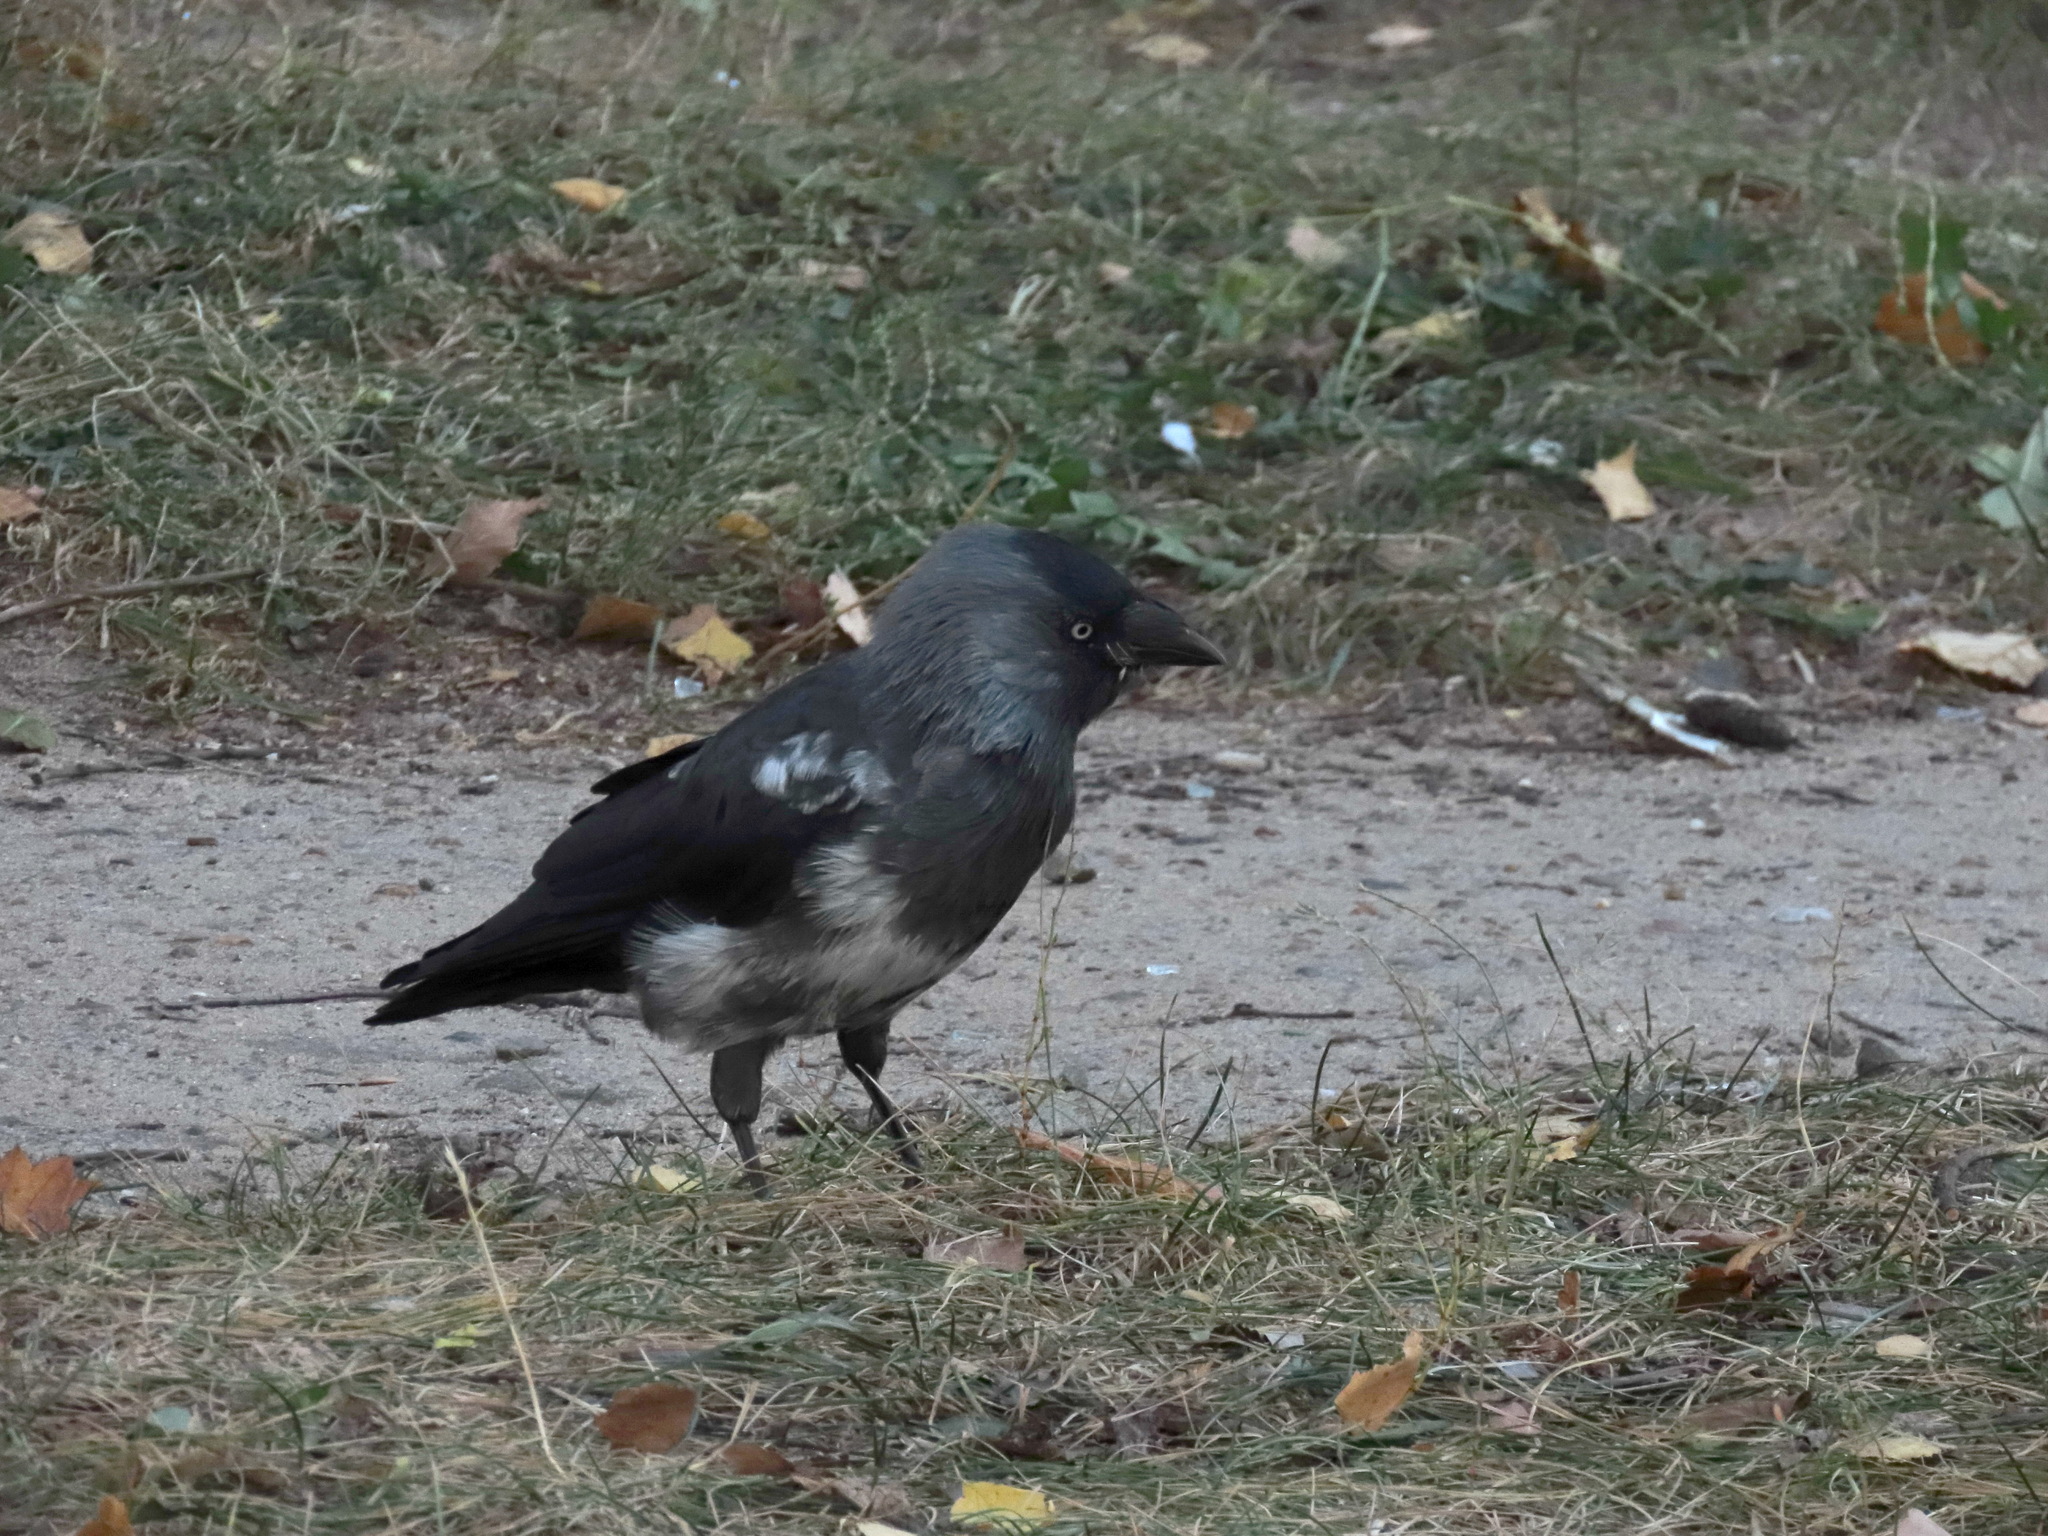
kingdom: Animalia
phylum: Chordata
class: Aves
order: Passeriformes
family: Corvidae
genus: Coloeus
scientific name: Coloeus monedula
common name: Western jackdaw
